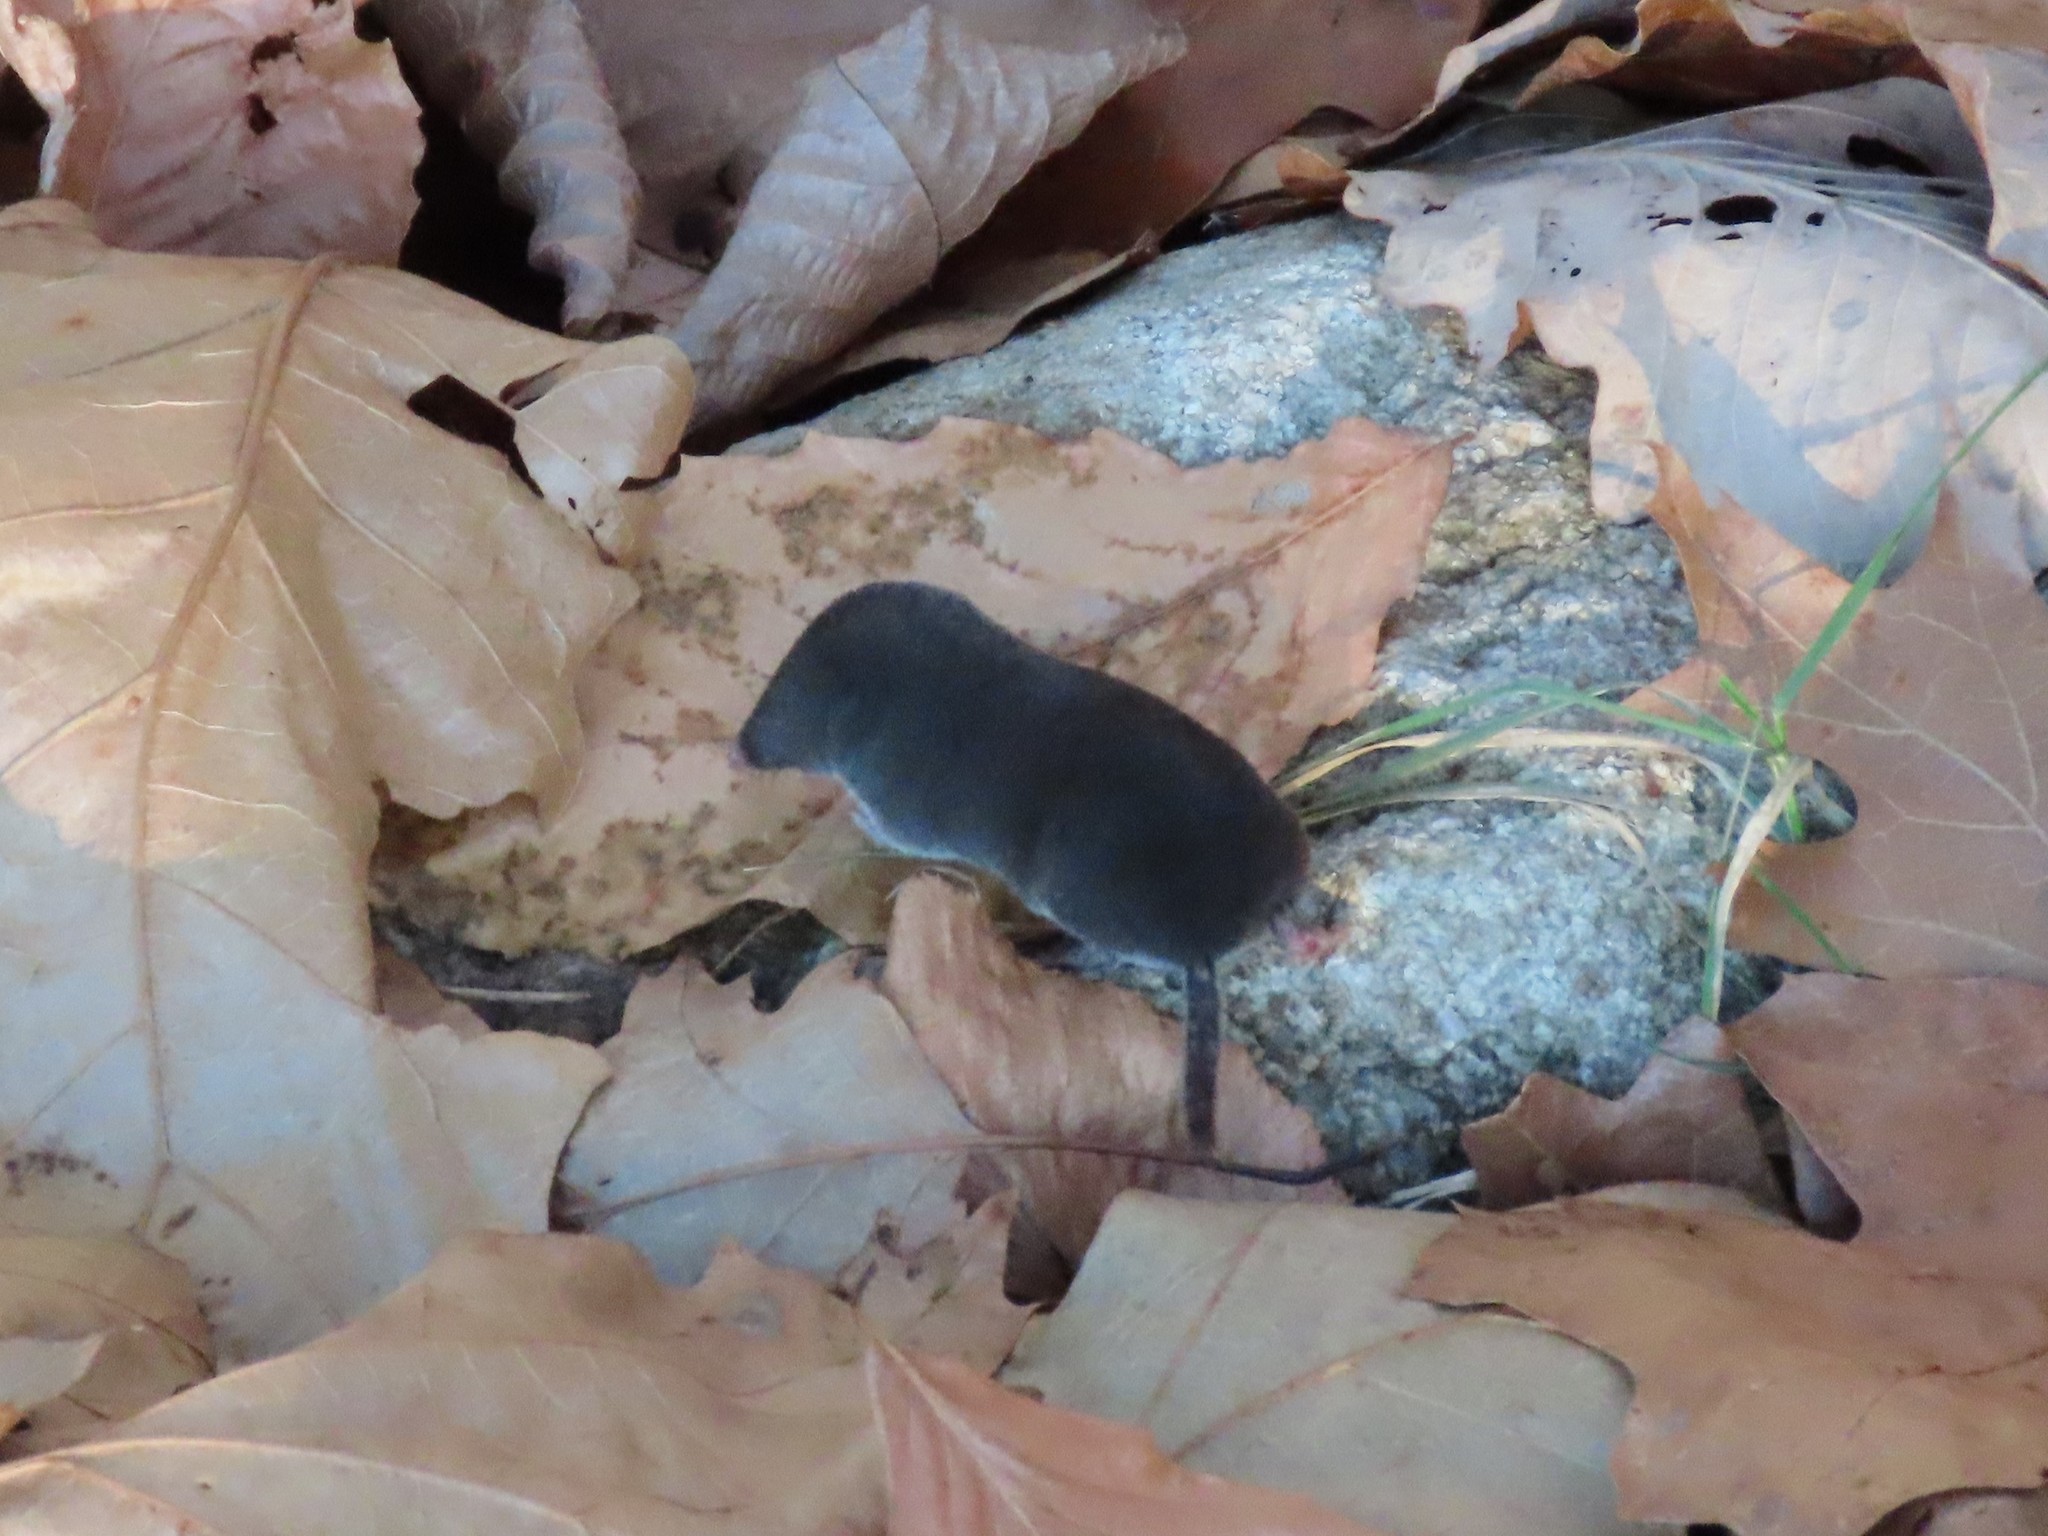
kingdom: Animalia
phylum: Chordata
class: Mammalia
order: Soricomorpha
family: Soricidae
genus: Blarina
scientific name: Blarina brevicauda
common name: Northern short-tailed shrew
